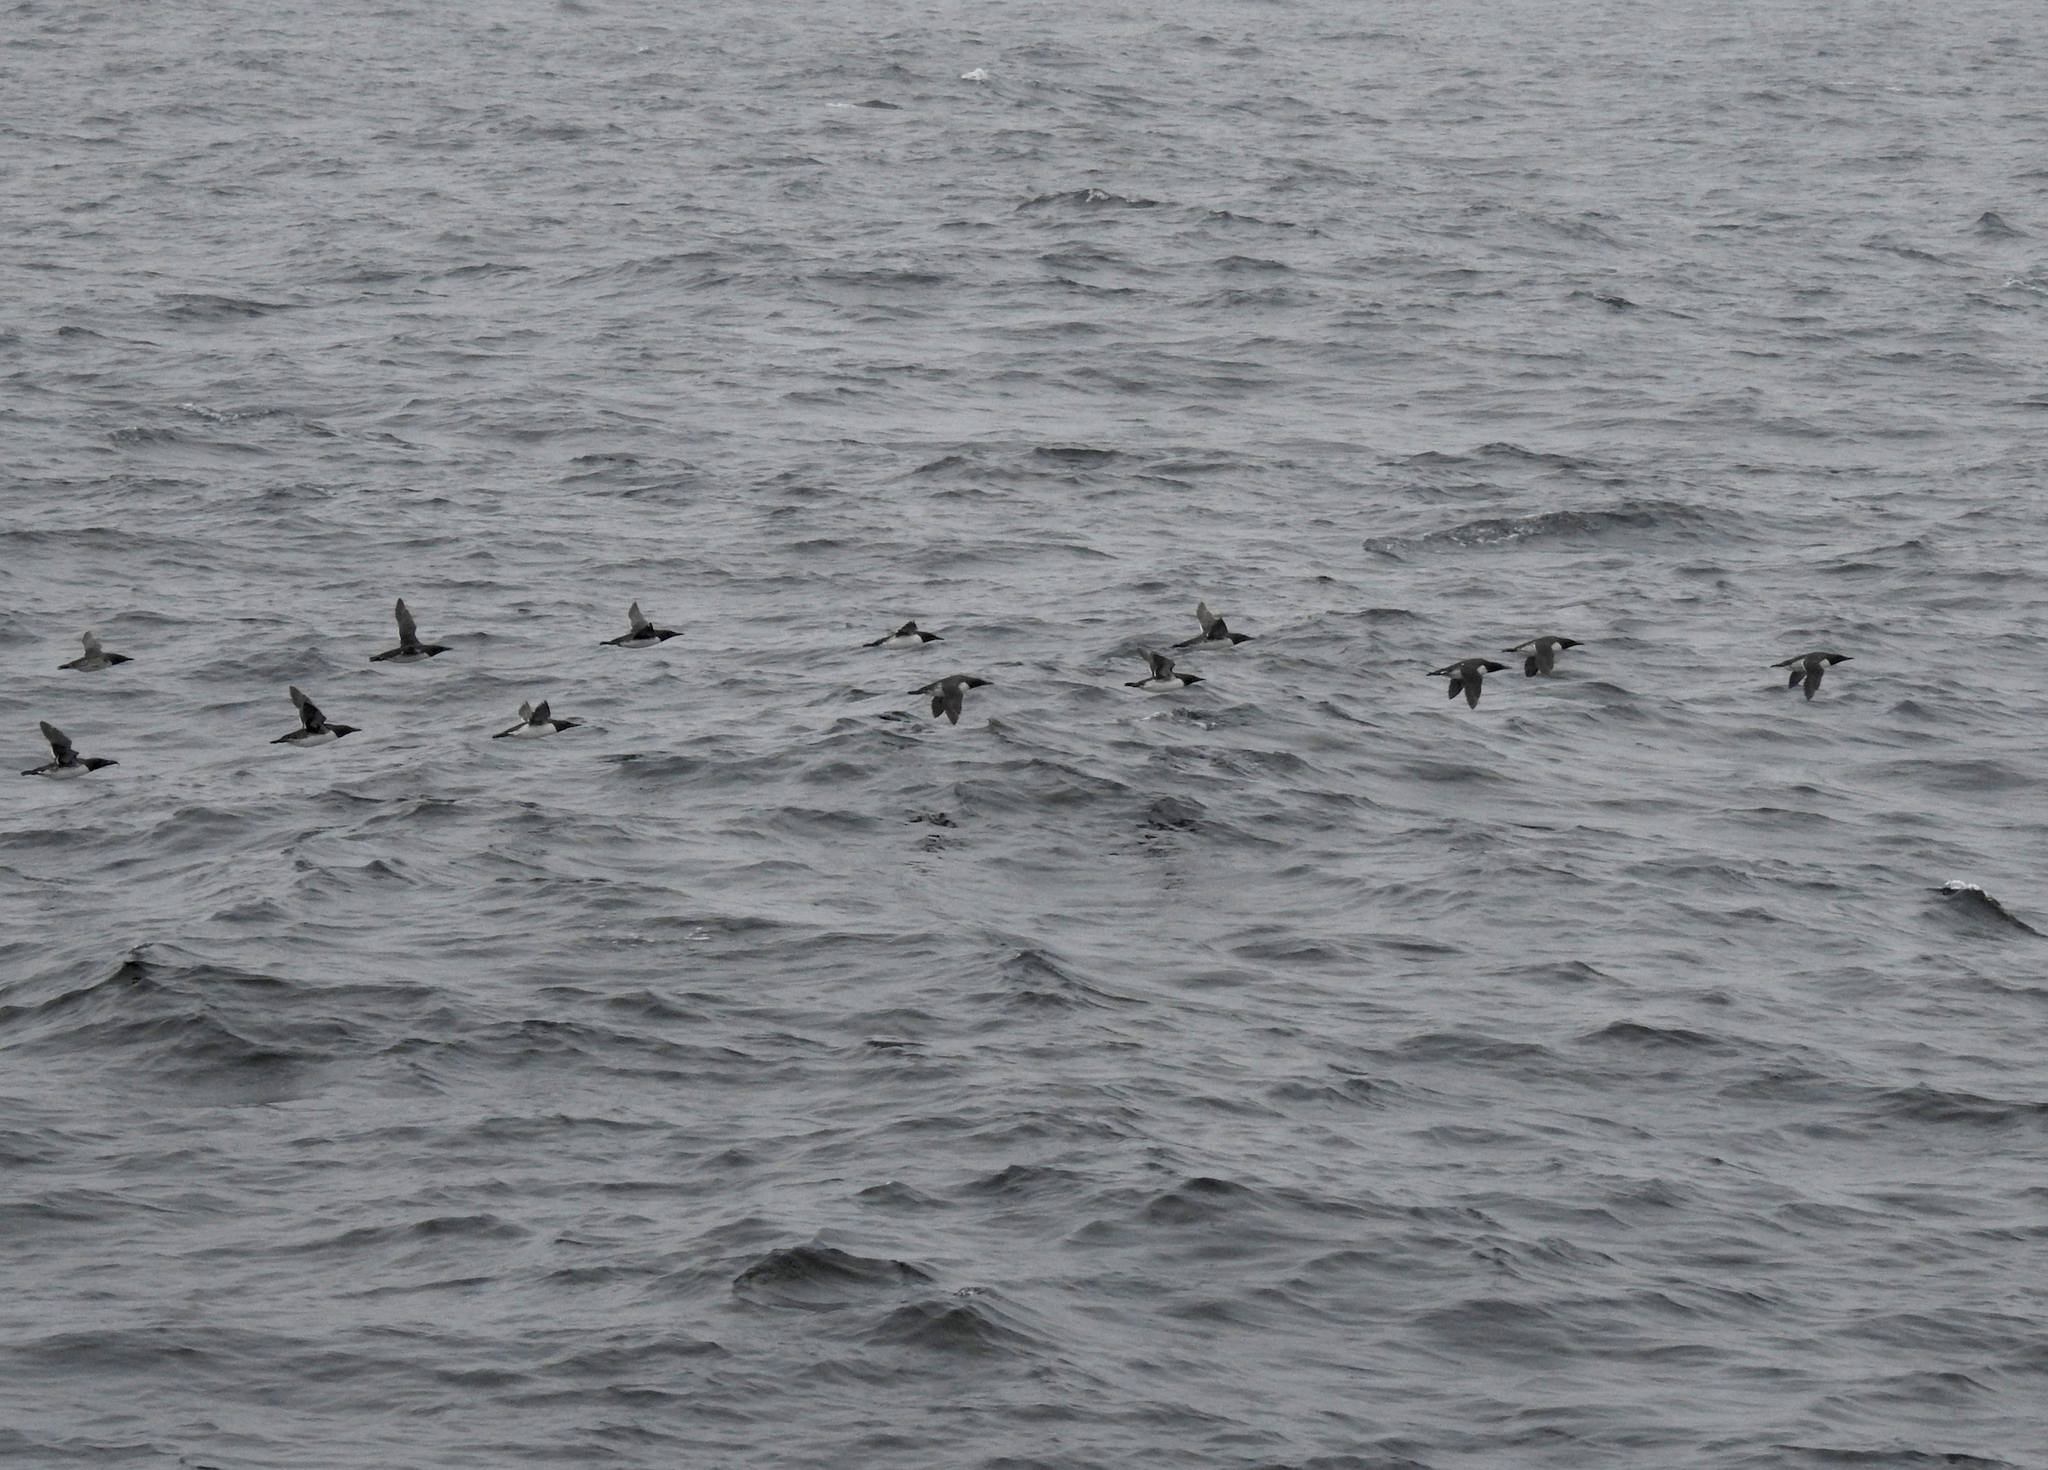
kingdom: Animalia
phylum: Chordata
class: Aves
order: Charadriiformes
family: Alcidae
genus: Uria
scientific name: Uria aalge
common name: Common murre
